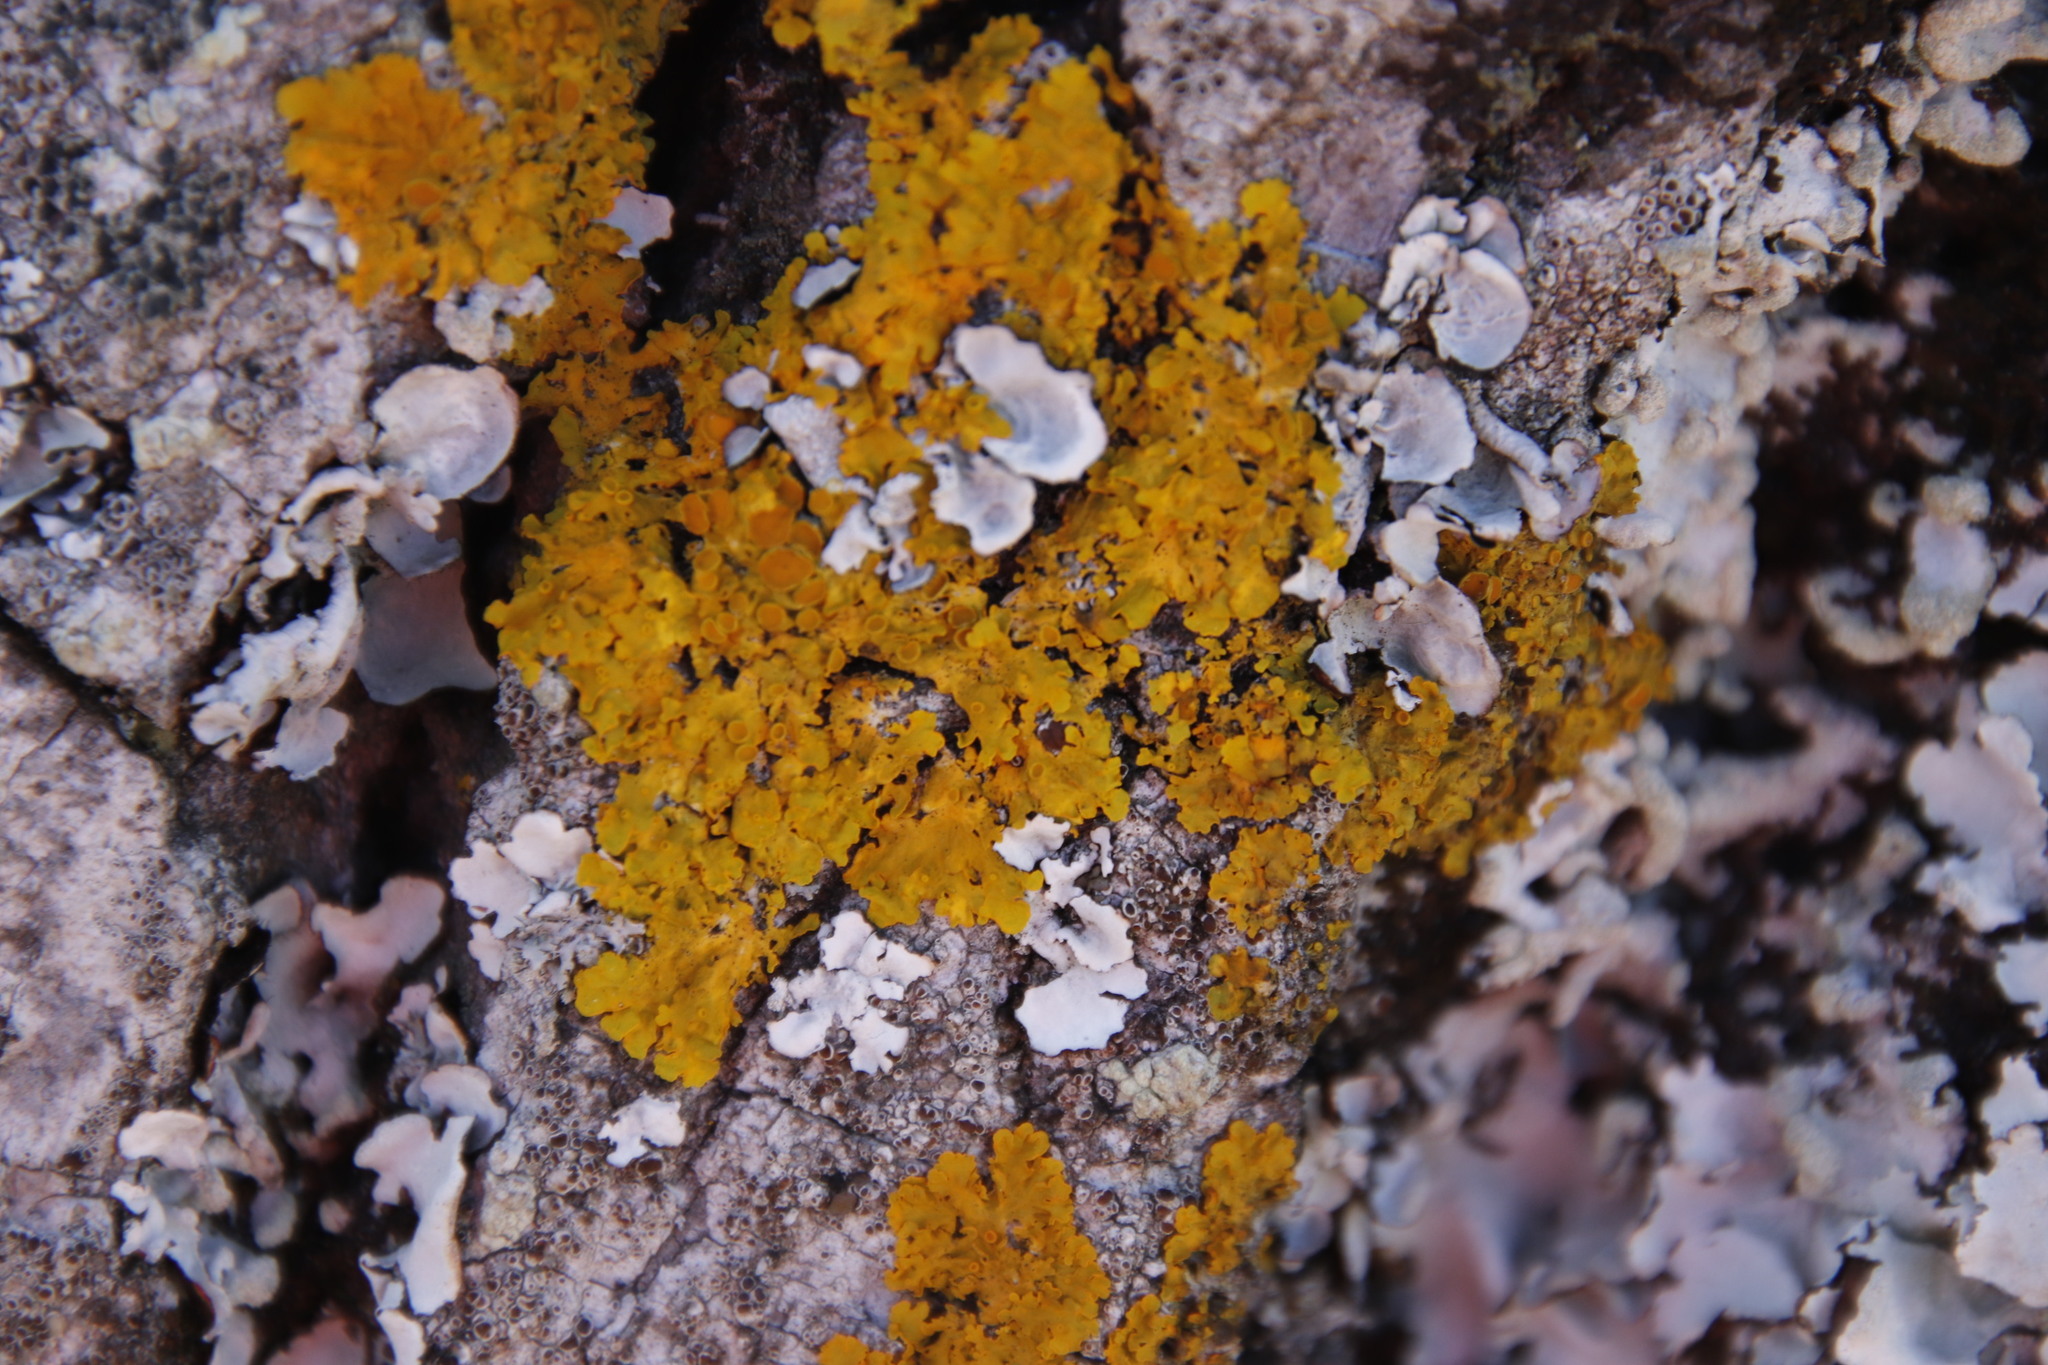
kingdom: Fungi
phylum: Ascomycota
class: Lecanoromycetes
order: Teloschistales
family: Teloschistaceae
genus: Xanthoria
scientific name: Xanthoria parietina
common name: Common orange lichen
